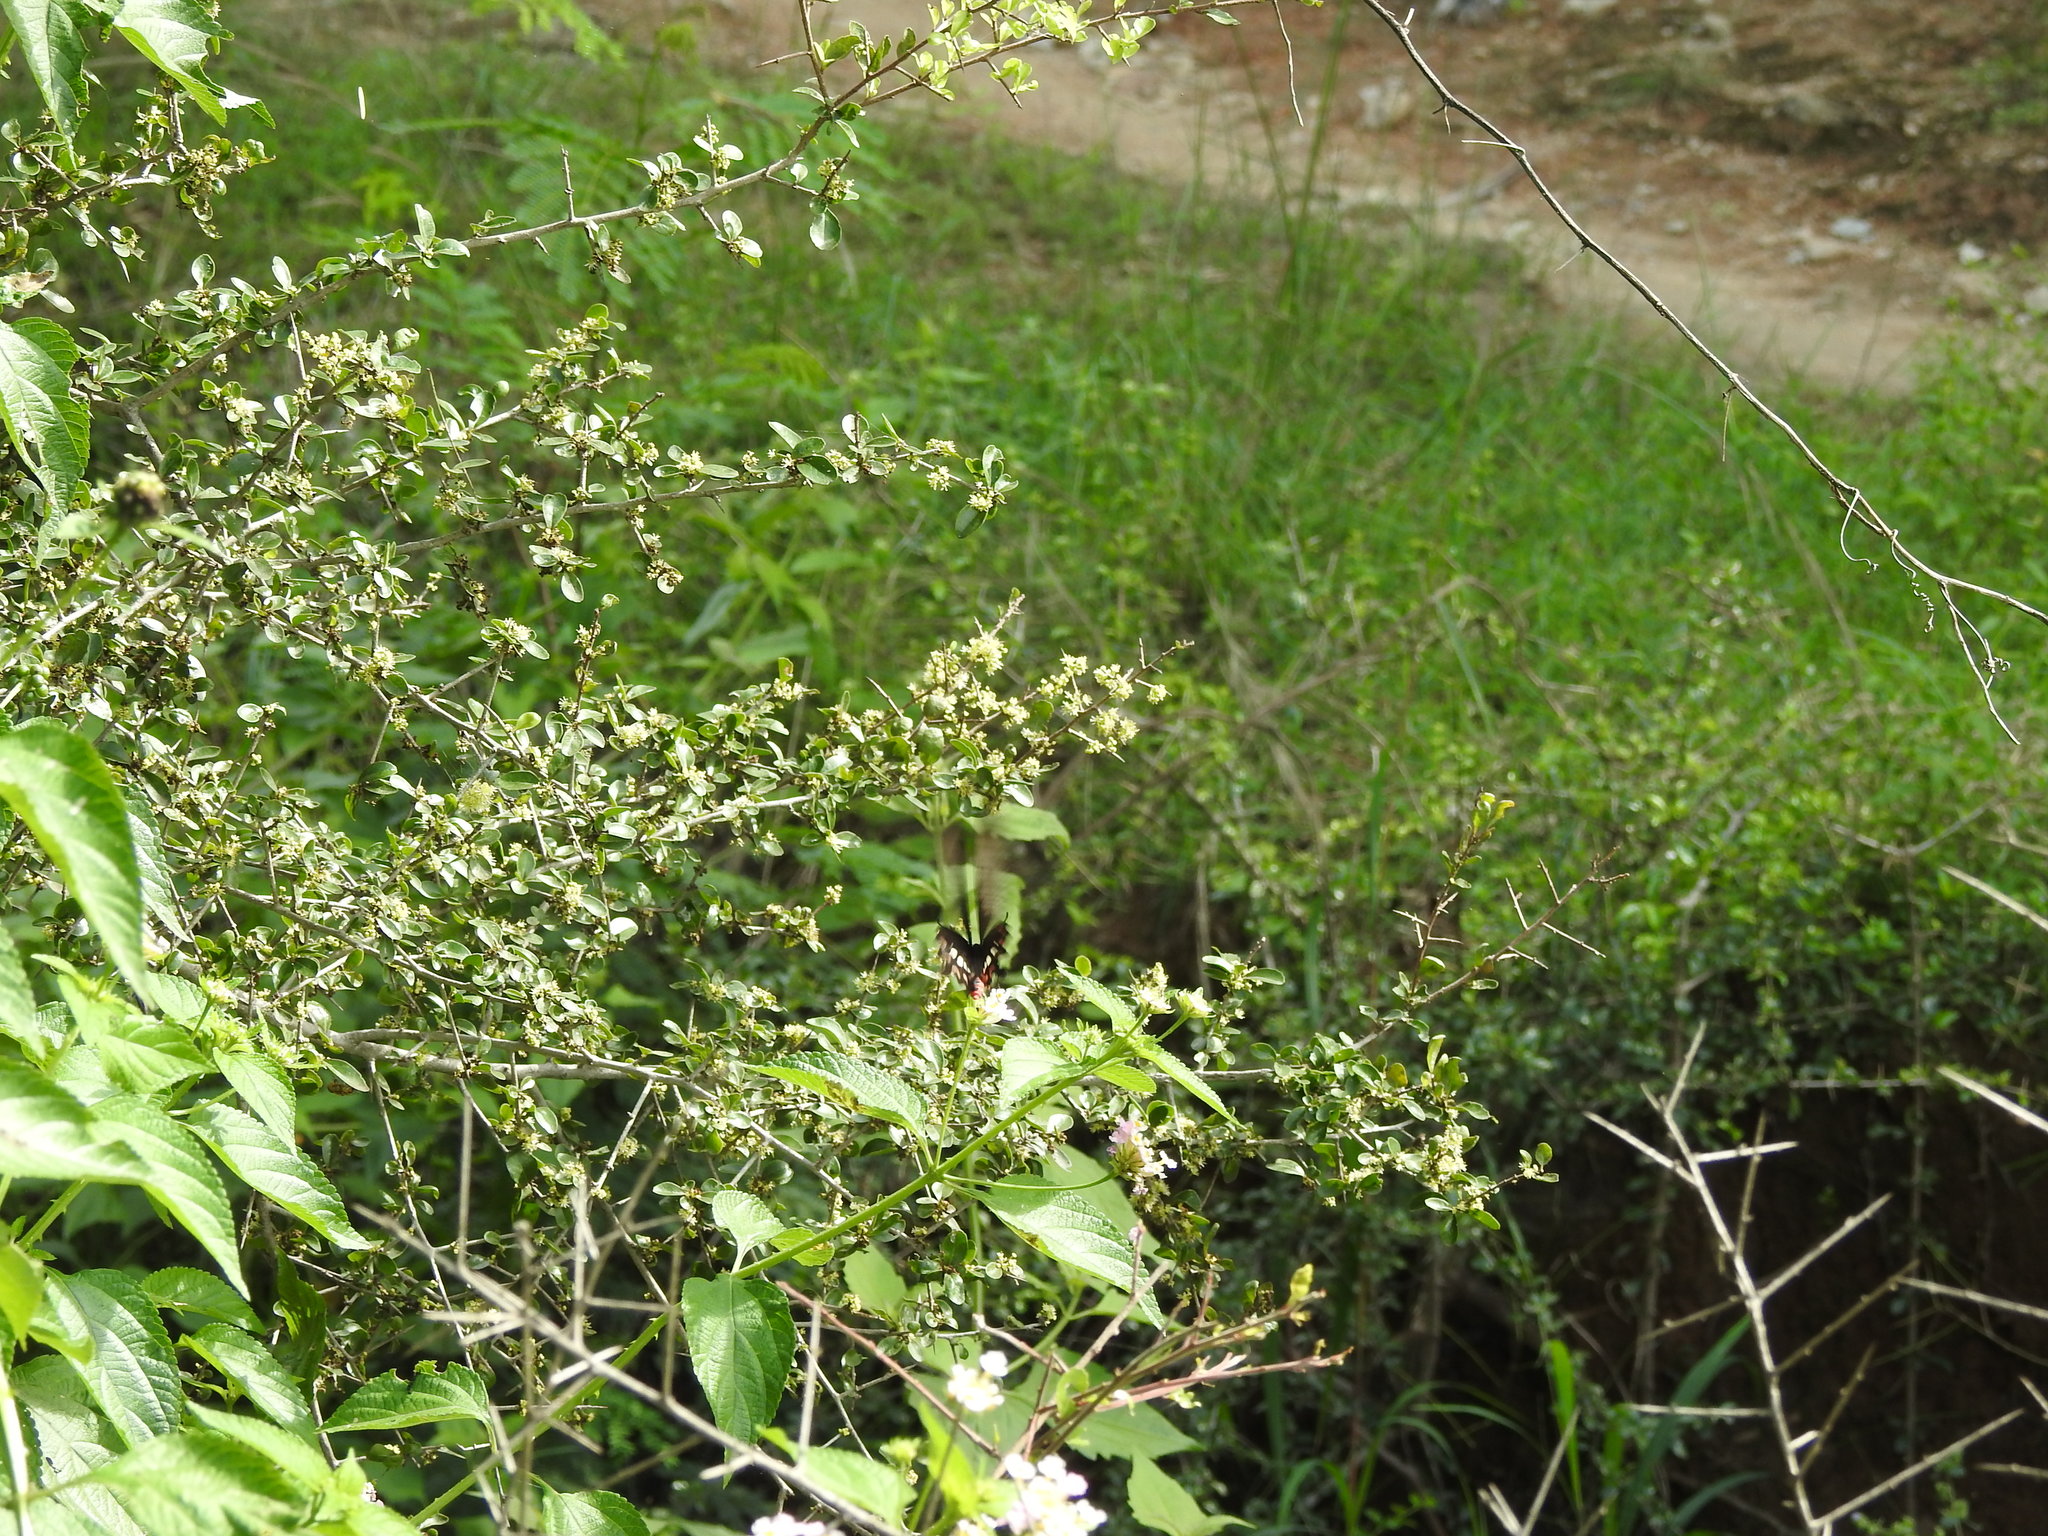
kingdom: Animalia
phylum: Arthropoda
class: Insecta
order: Lepidoptera
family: Papilionidae
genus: Pachliopta
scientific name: Pachliopta aristolochiae
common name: Common rose
